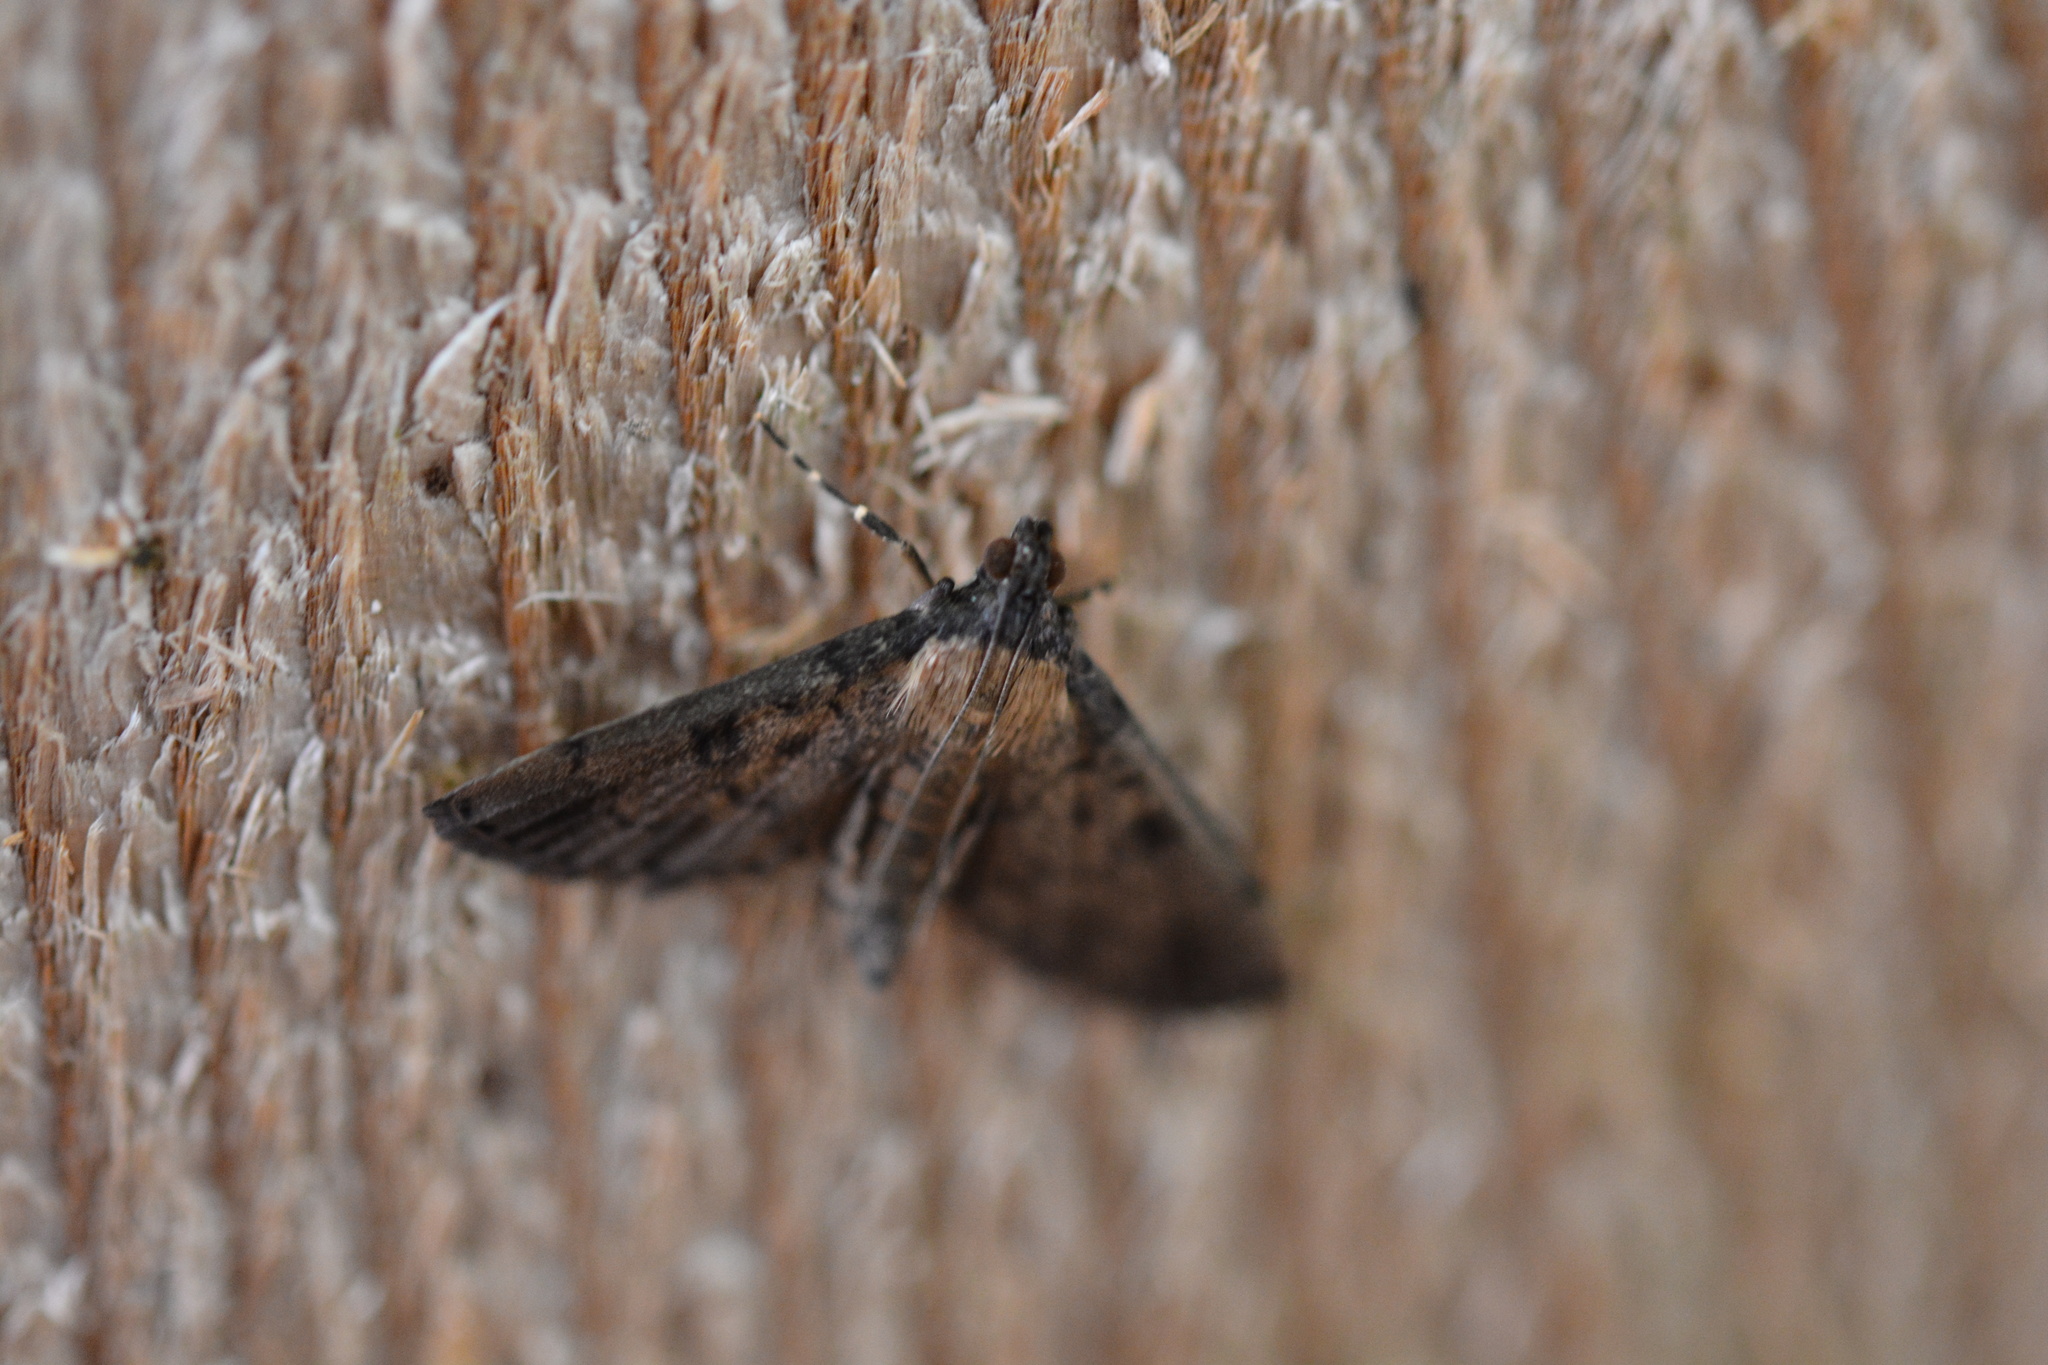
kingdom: Animalia
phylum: Arthropoda
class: Insecta
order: Lepidoptera
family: Crambidae
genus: Nacoleia
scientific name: Nacoleia charesalis
